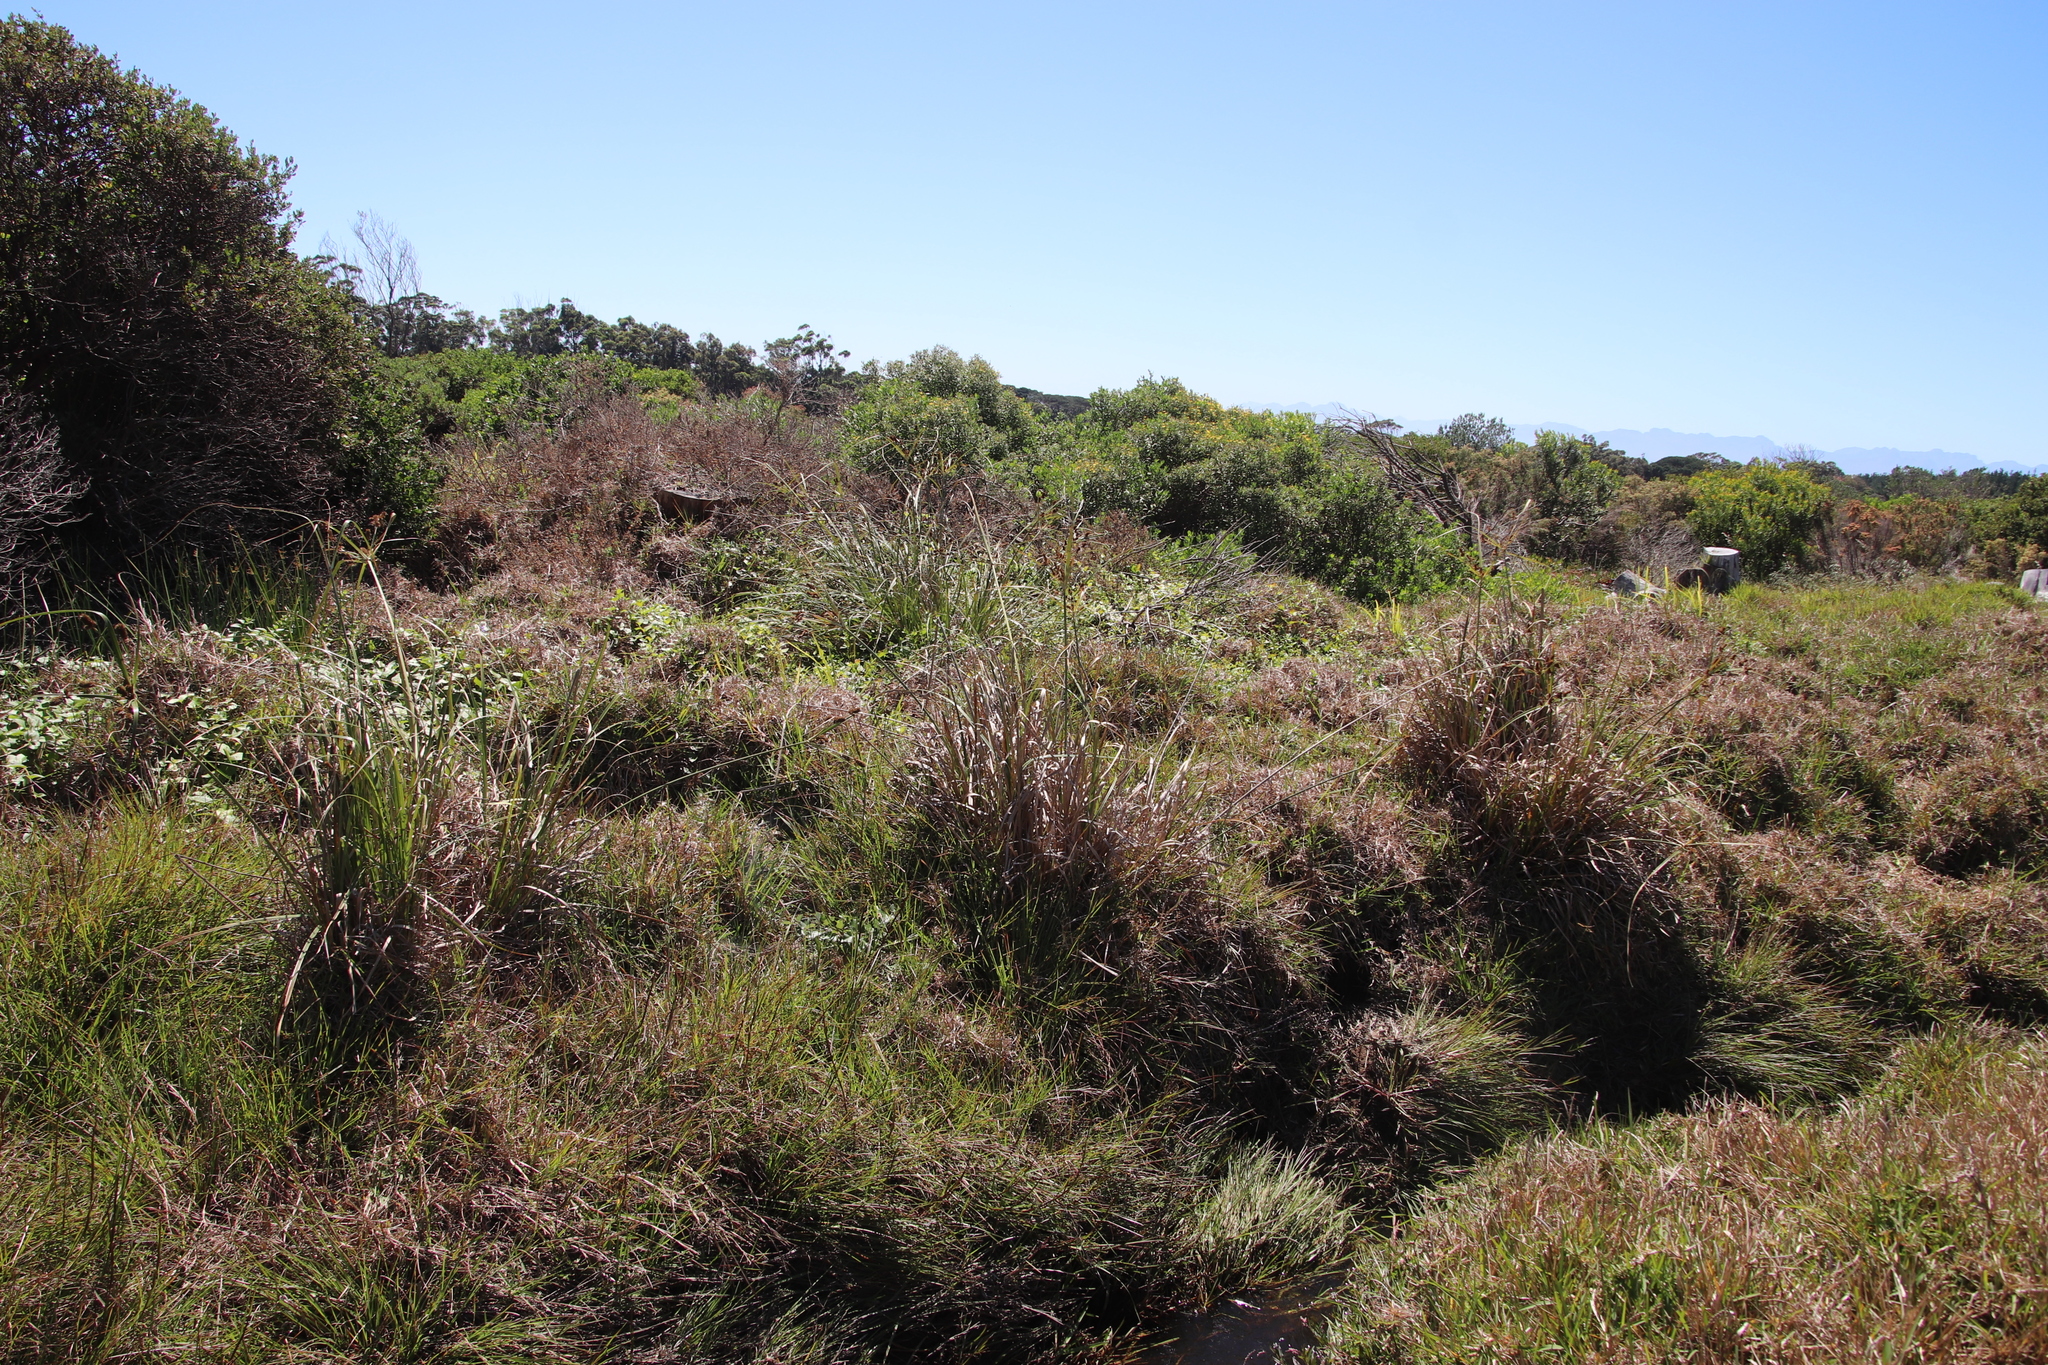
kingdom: Plantae
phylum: Tracheophyta
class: Liliopsida
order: Poales
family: Cyperaceae
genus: Cyperus
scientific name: Cyperus thunbergii
